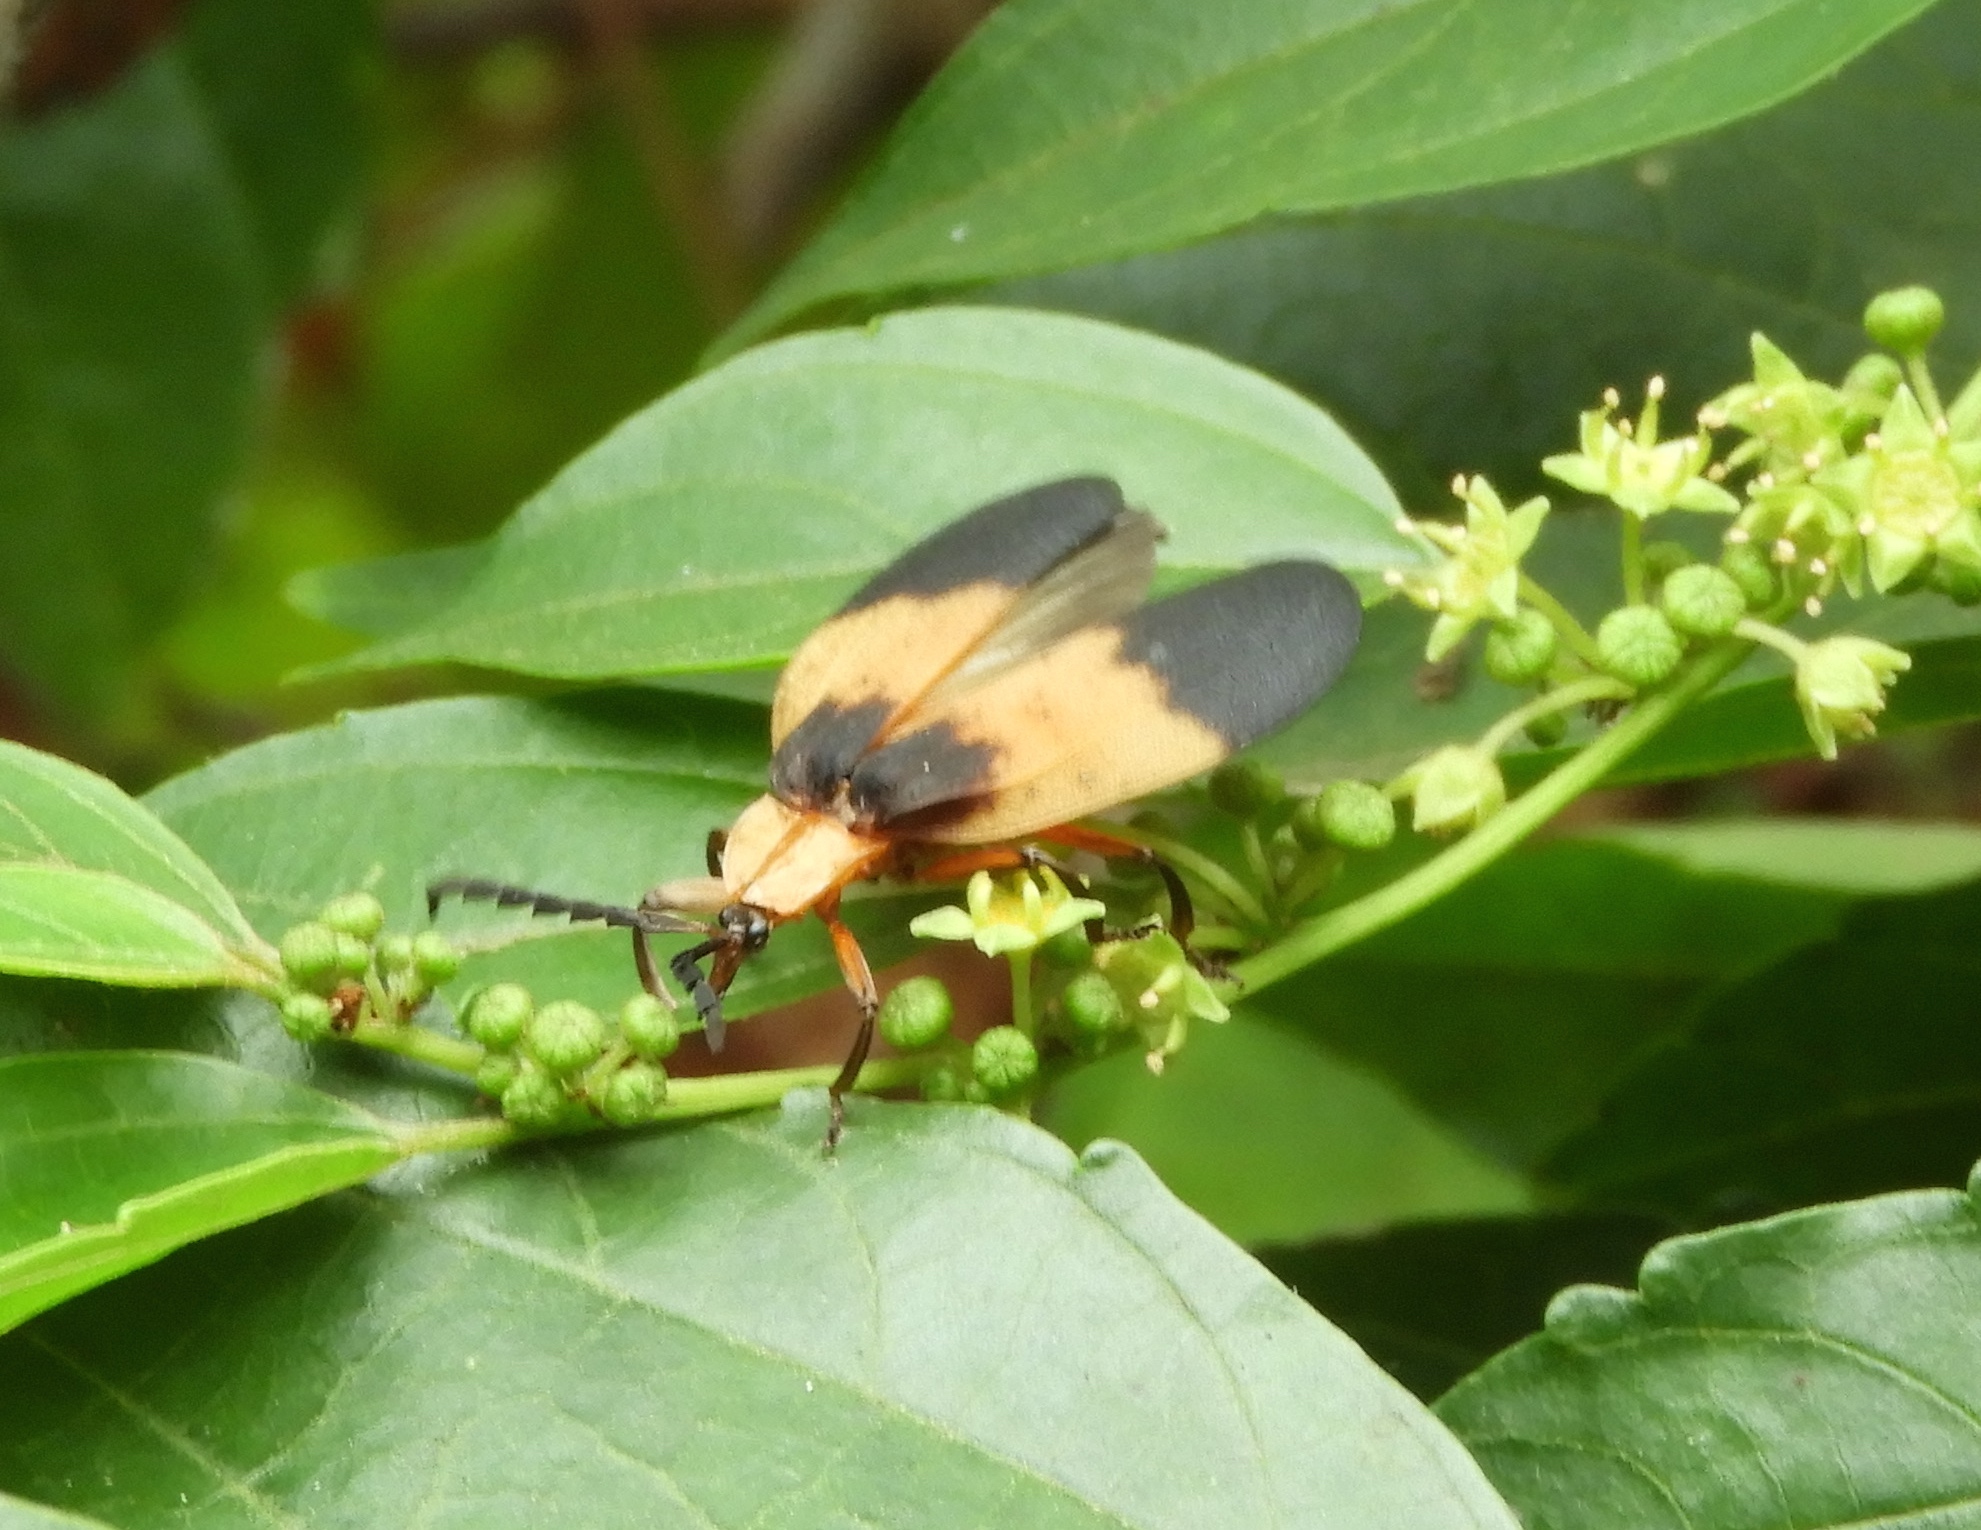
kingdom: Animalia
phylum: Arthropoda
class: Insecta
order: Coleoptera
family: Lycidae
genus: Lycus
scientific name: Lycus
